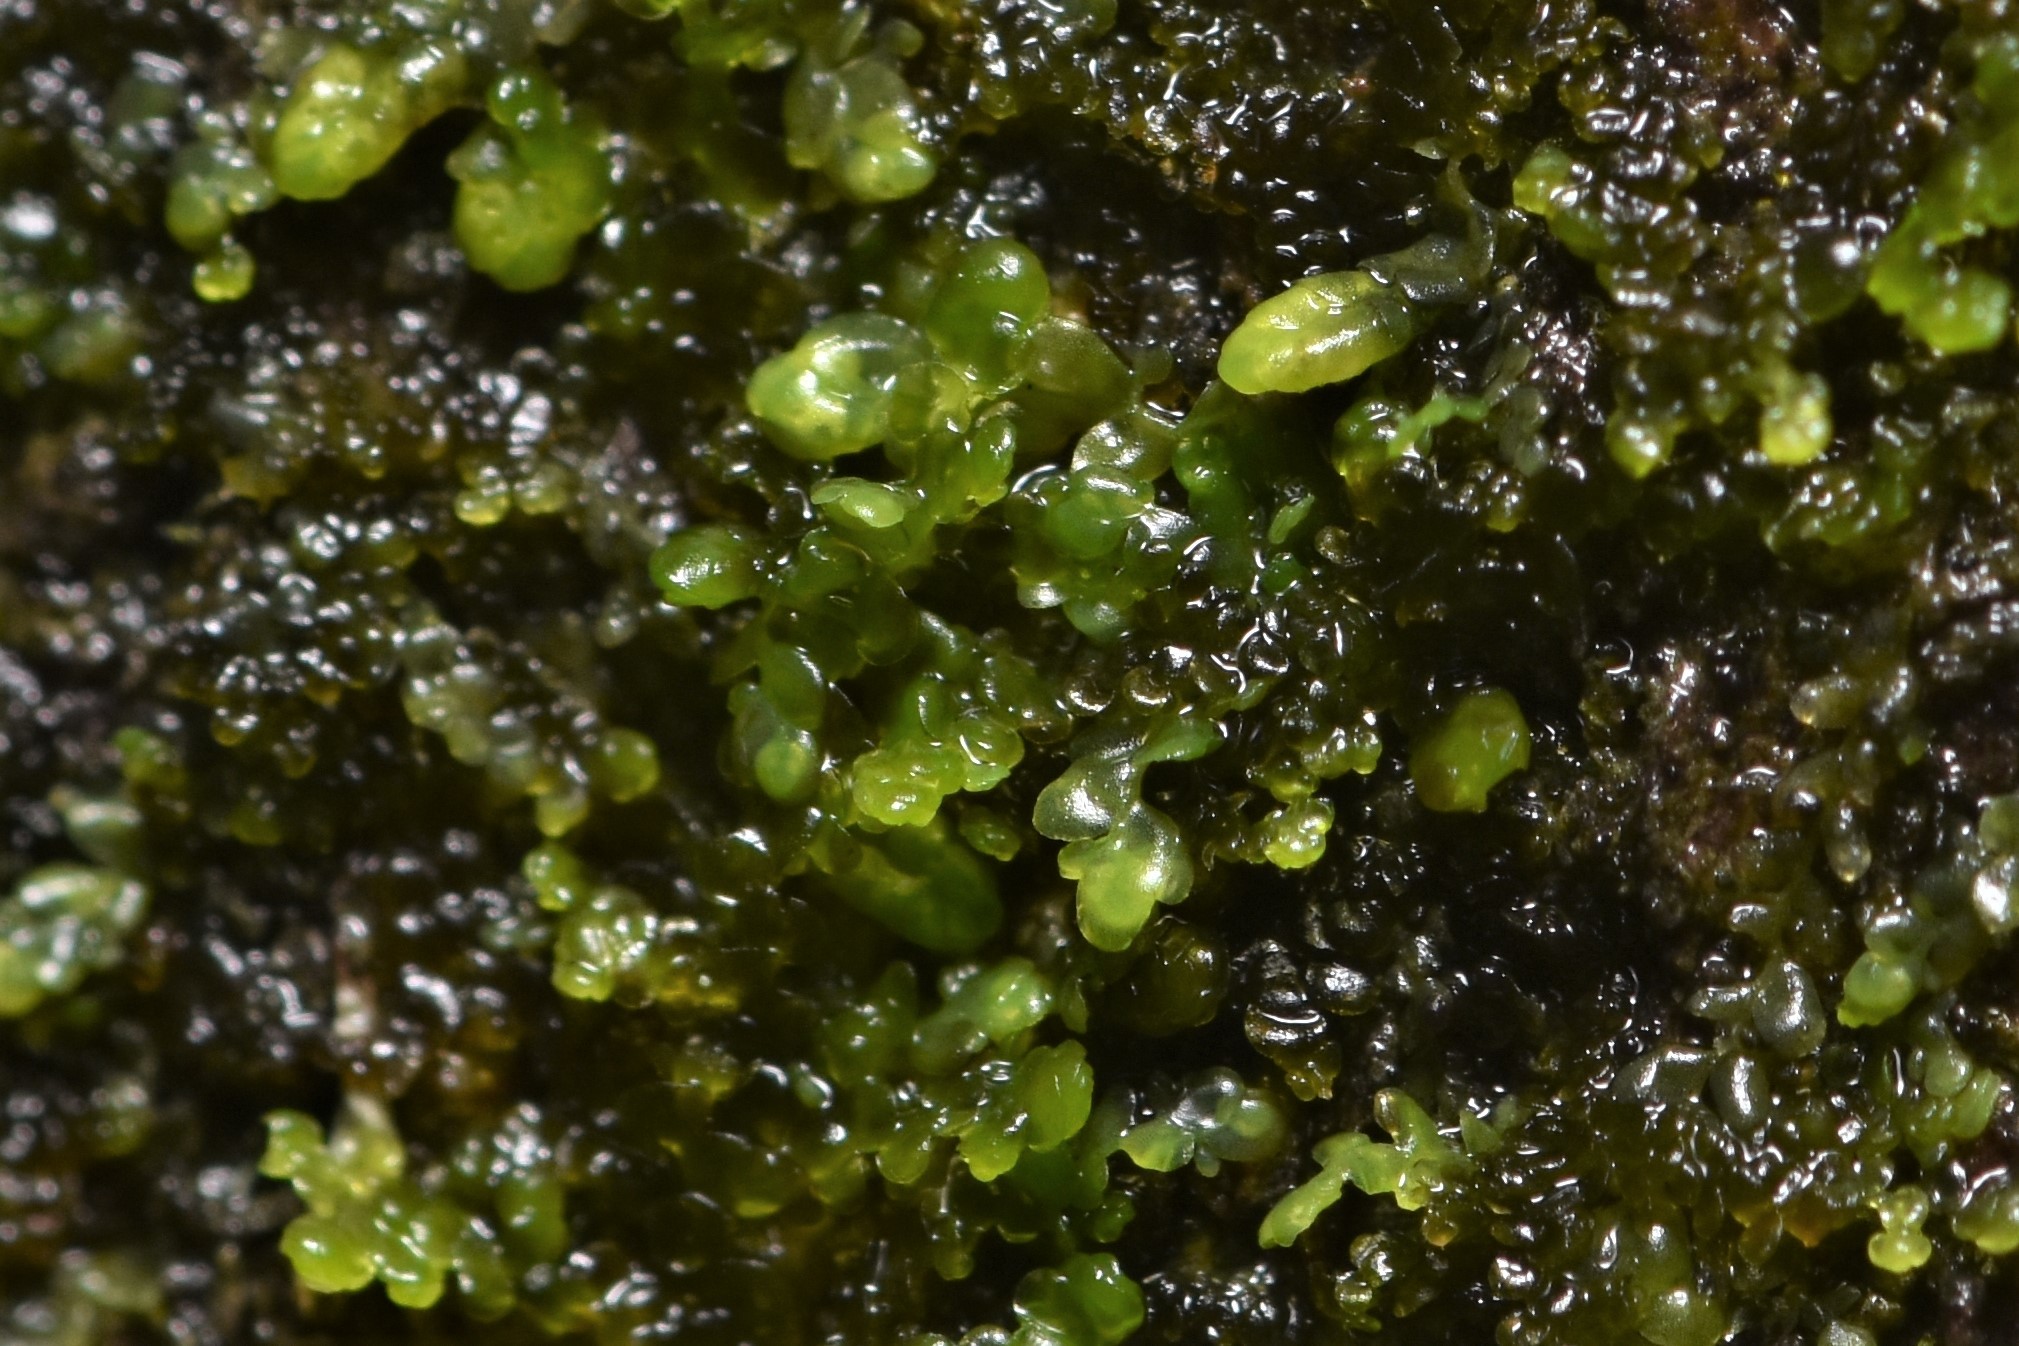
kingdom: Plantae
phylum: Marchantiophyta
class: Jungermanniopsida
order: Porellales
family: Radulaceae
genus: Radula
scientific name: Radula bolanderi
